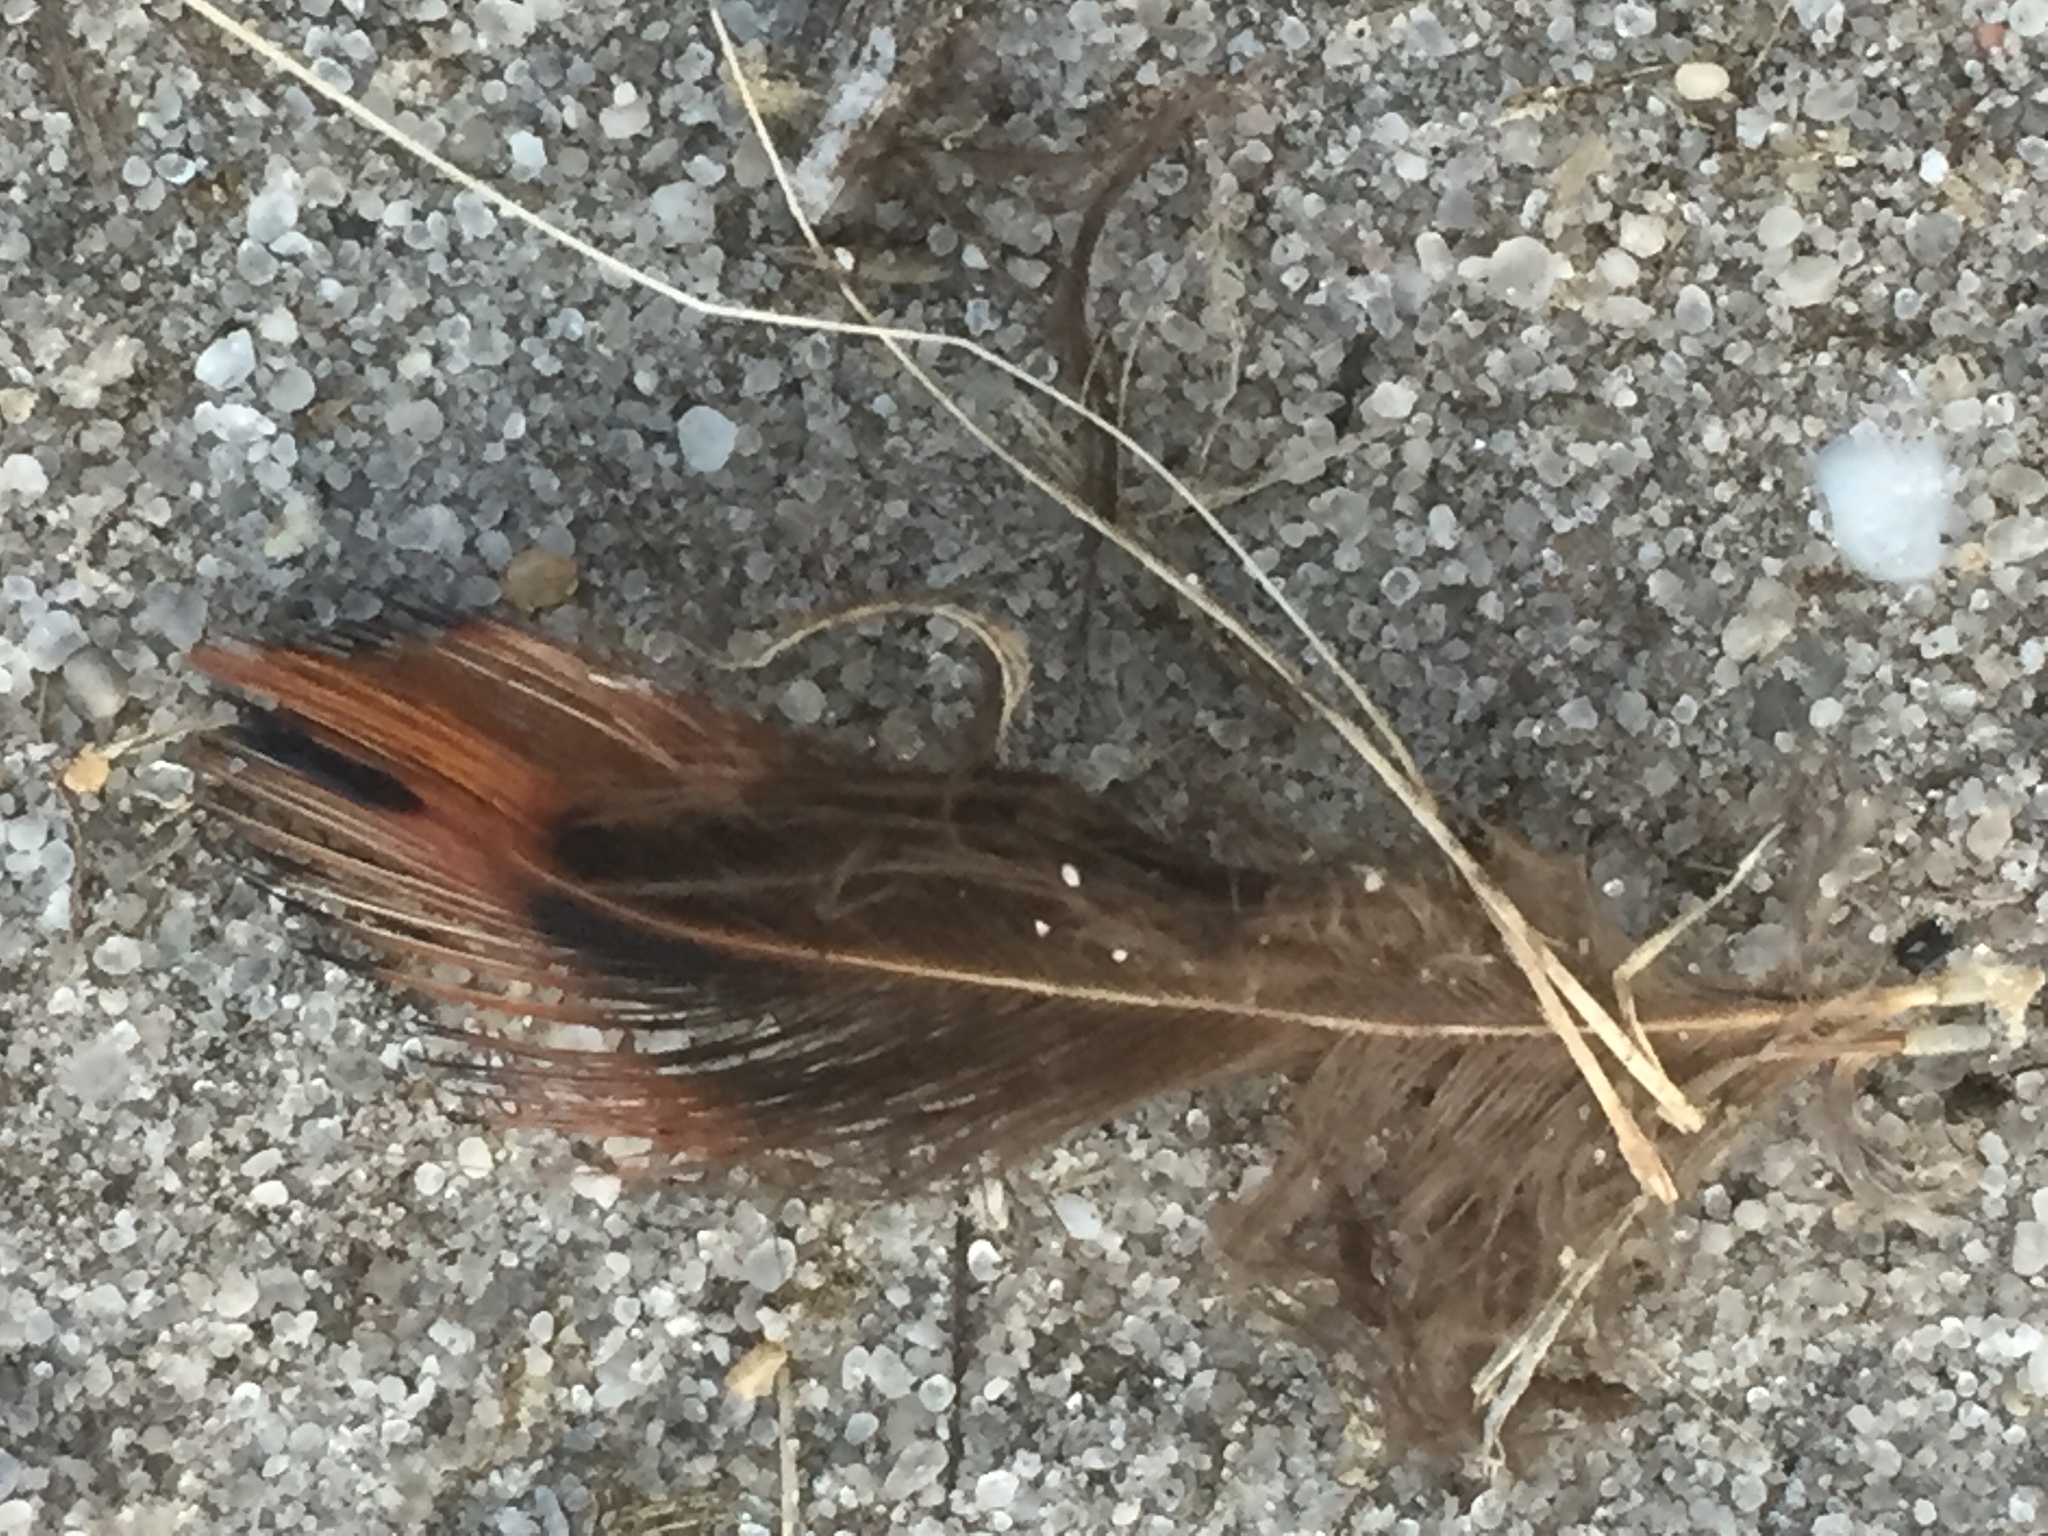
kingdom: Animalia
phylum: Chordata
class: Aves
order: Galliformes
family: Phasianidae
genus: Phasianus
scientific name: Phasianus colchicus
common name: Common pheasant
